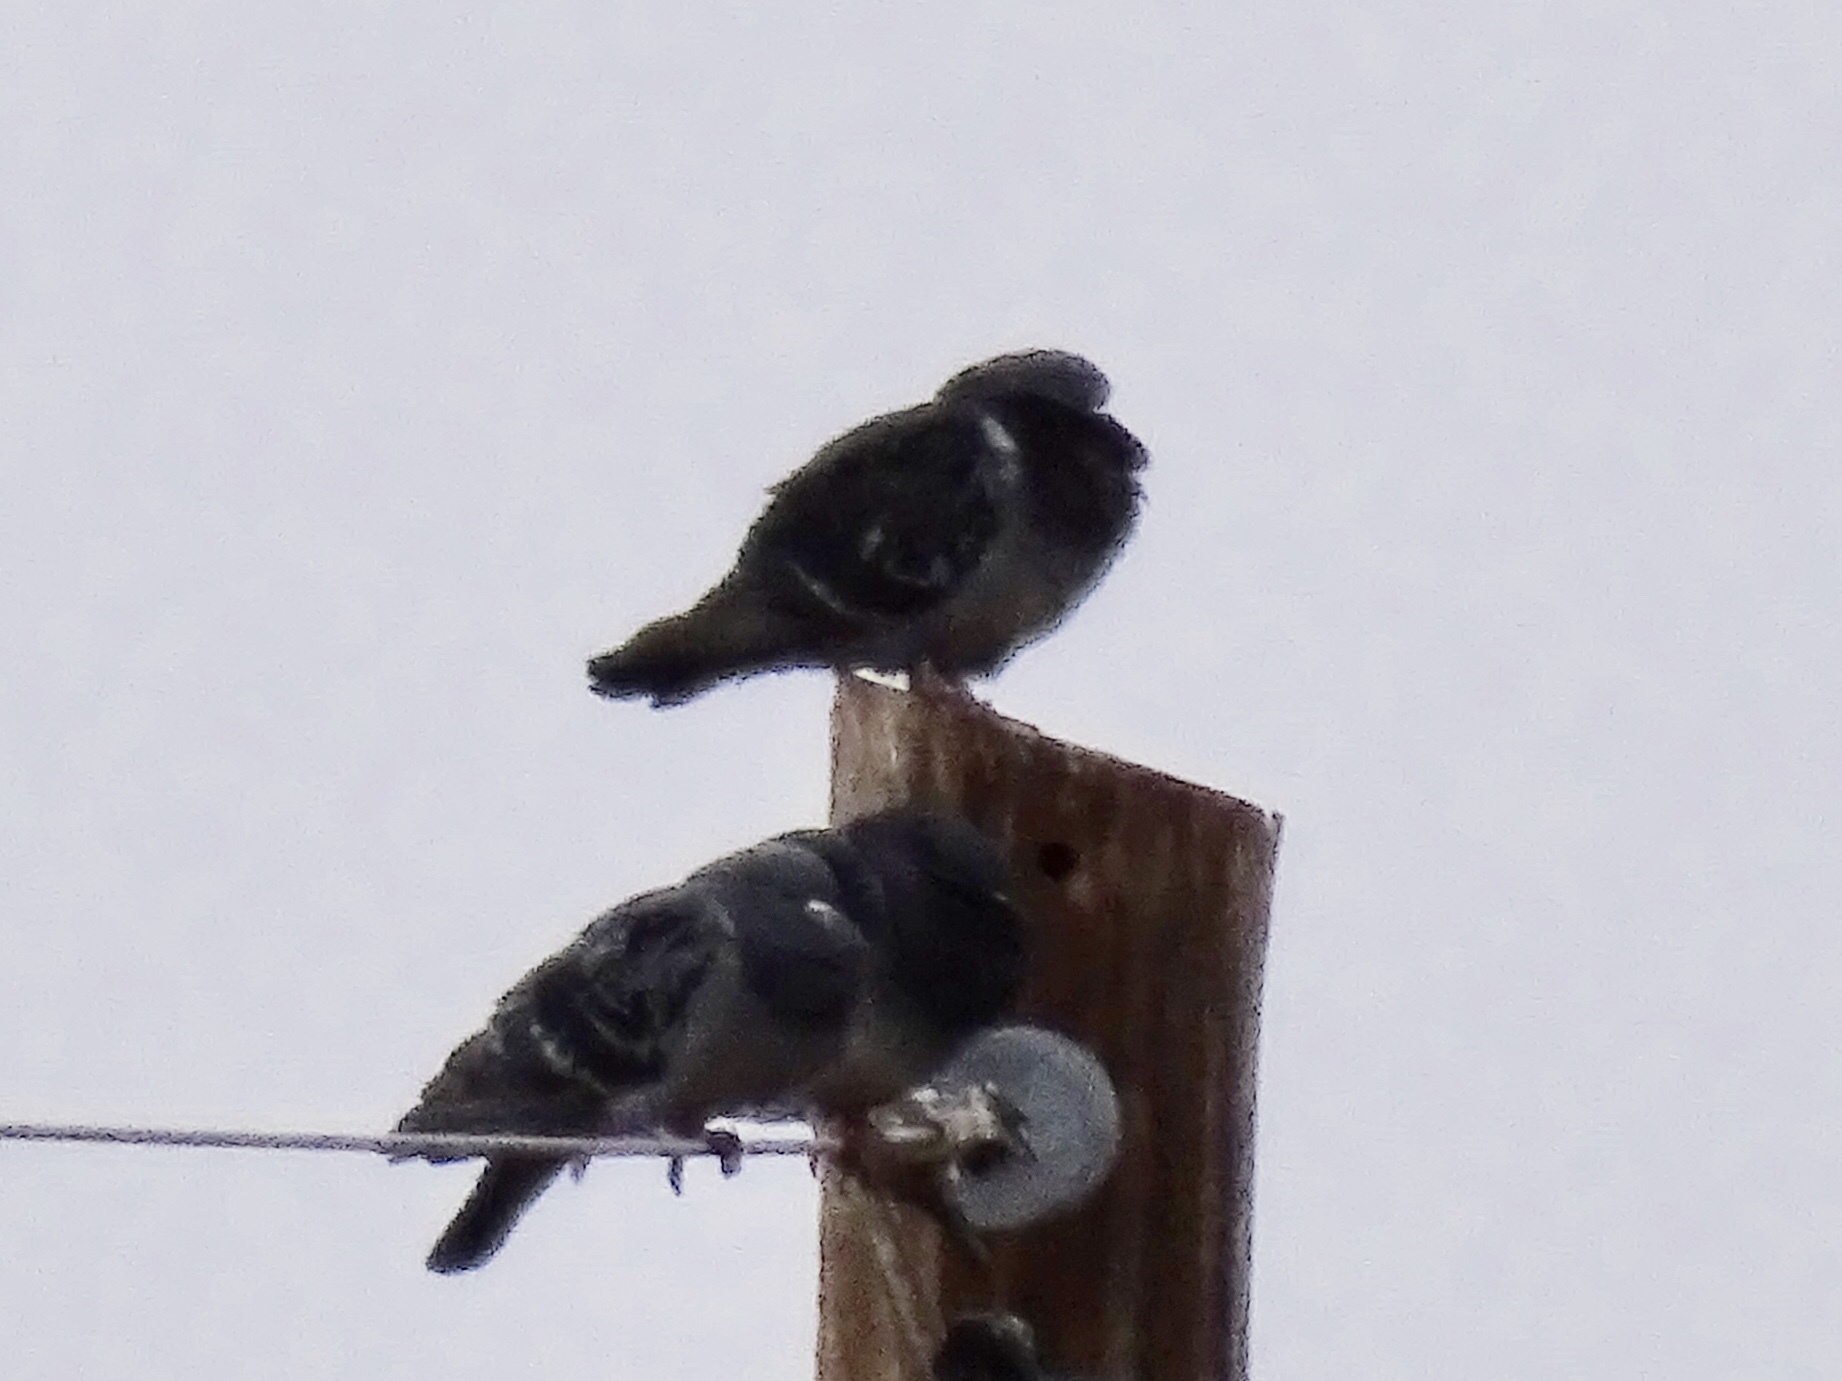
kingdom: Animalia
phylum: Chordata
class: Aves
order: Columbiformes
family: Columbidae
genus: Columba
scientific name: Columba livia
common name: Rock pigeon
